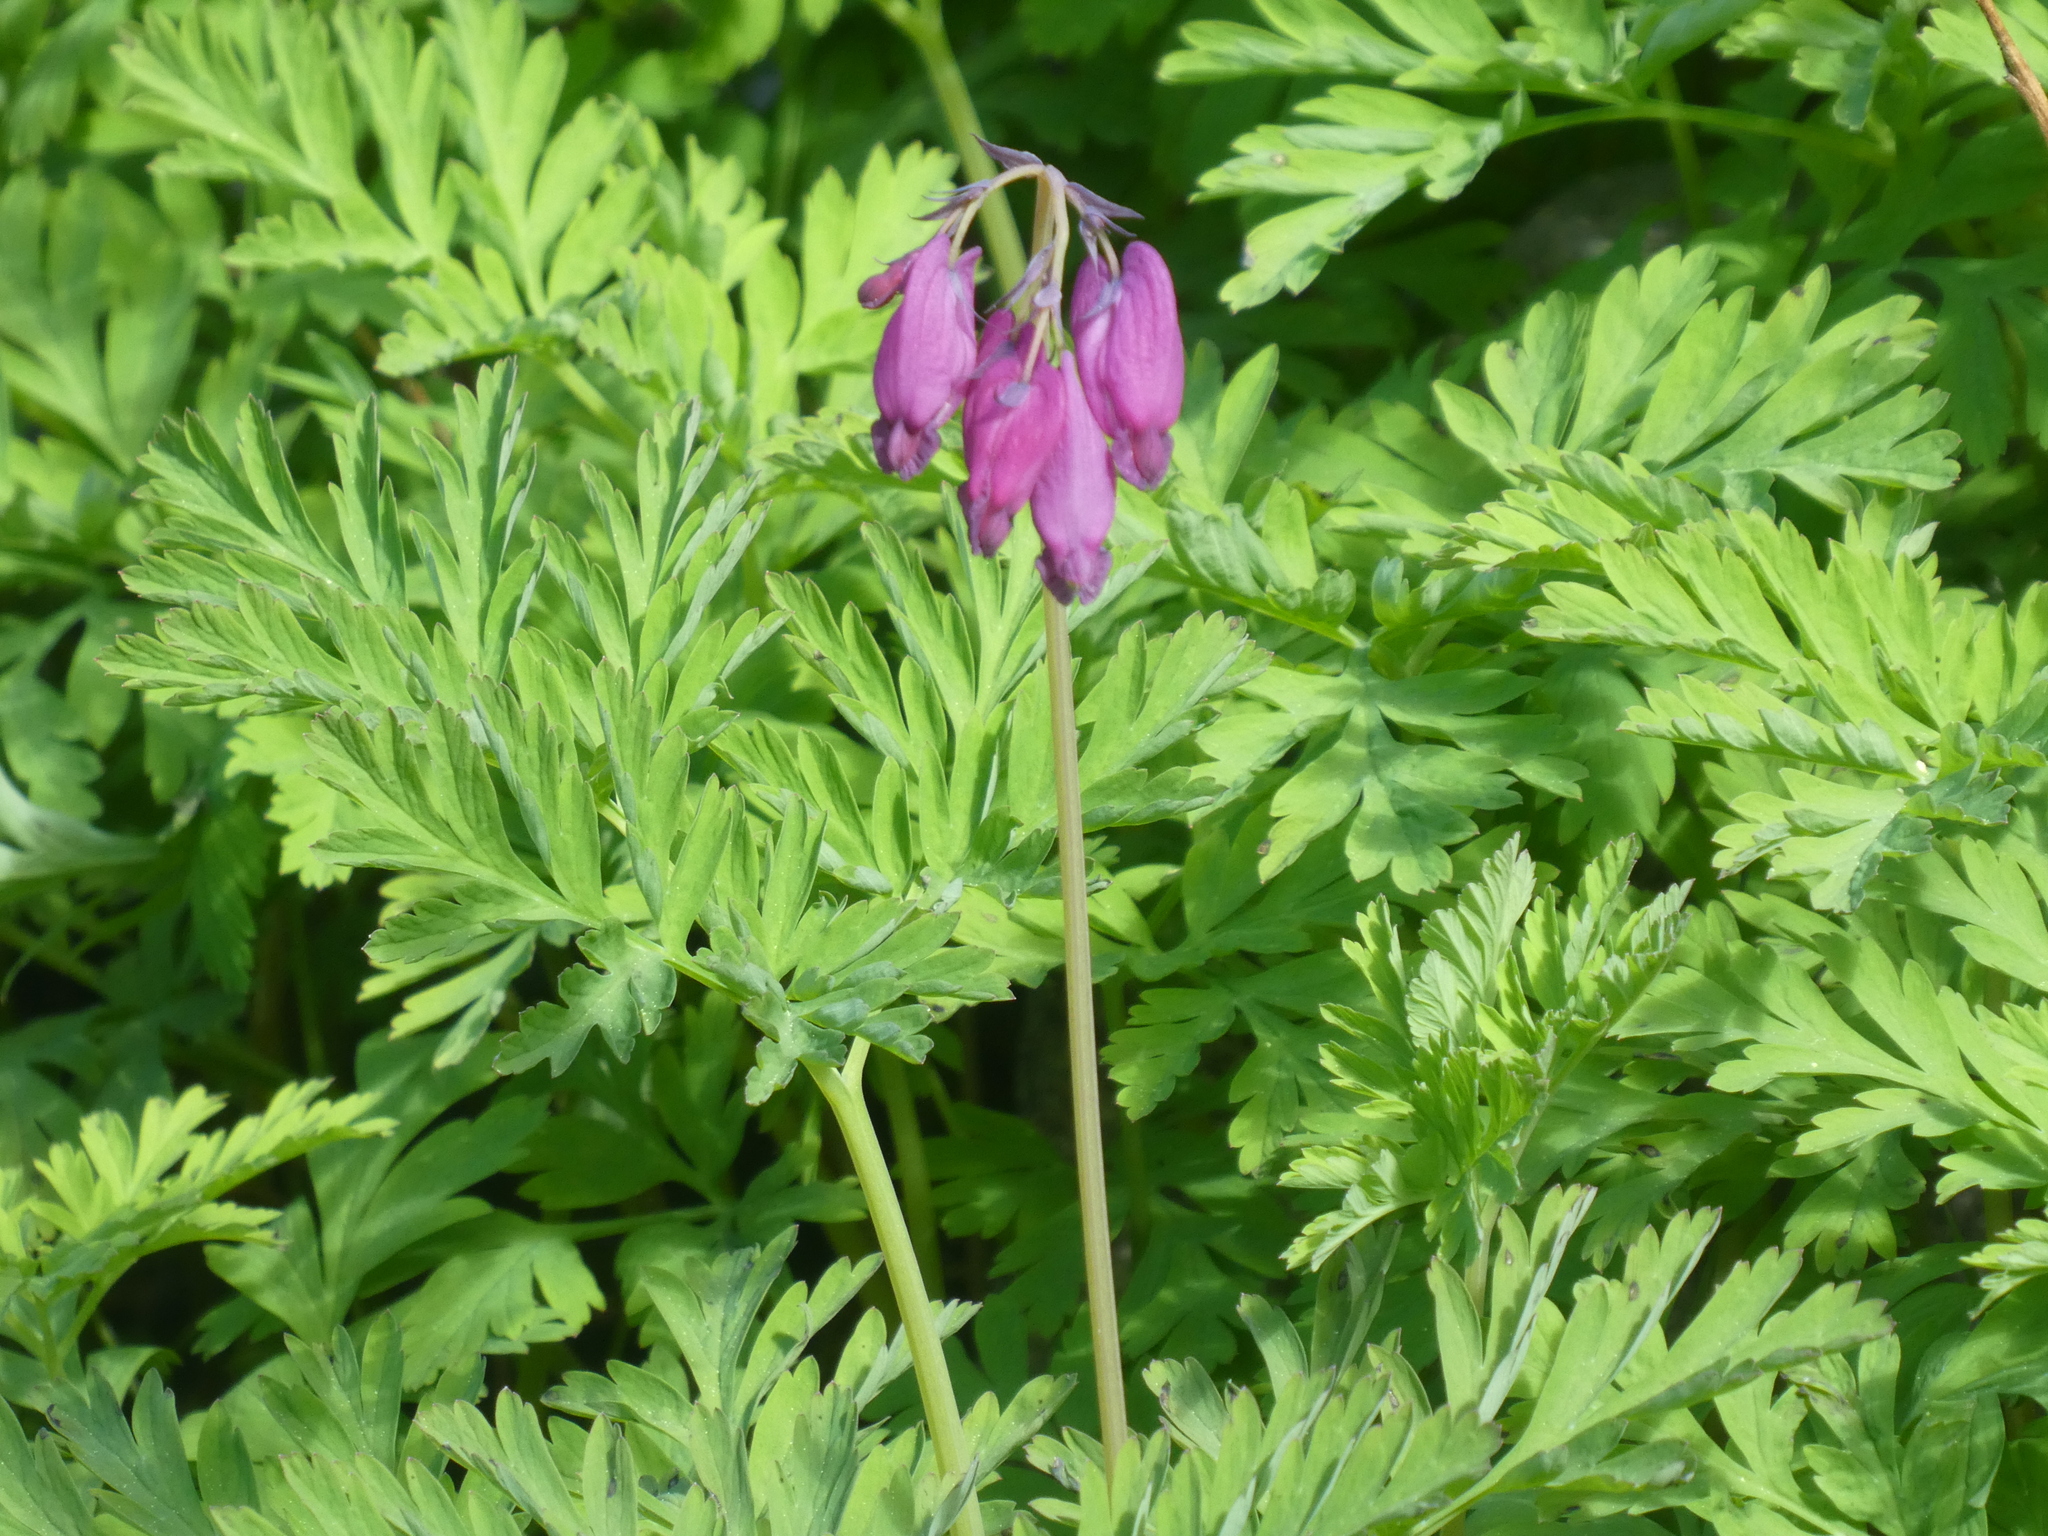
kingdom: Plantae
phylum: Tracheophyta
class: Magnoliopsida
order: Ranunculales
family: Papaveraceae
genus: Dicentra
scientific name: Dicentra formosa
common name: Bleeding-heart
